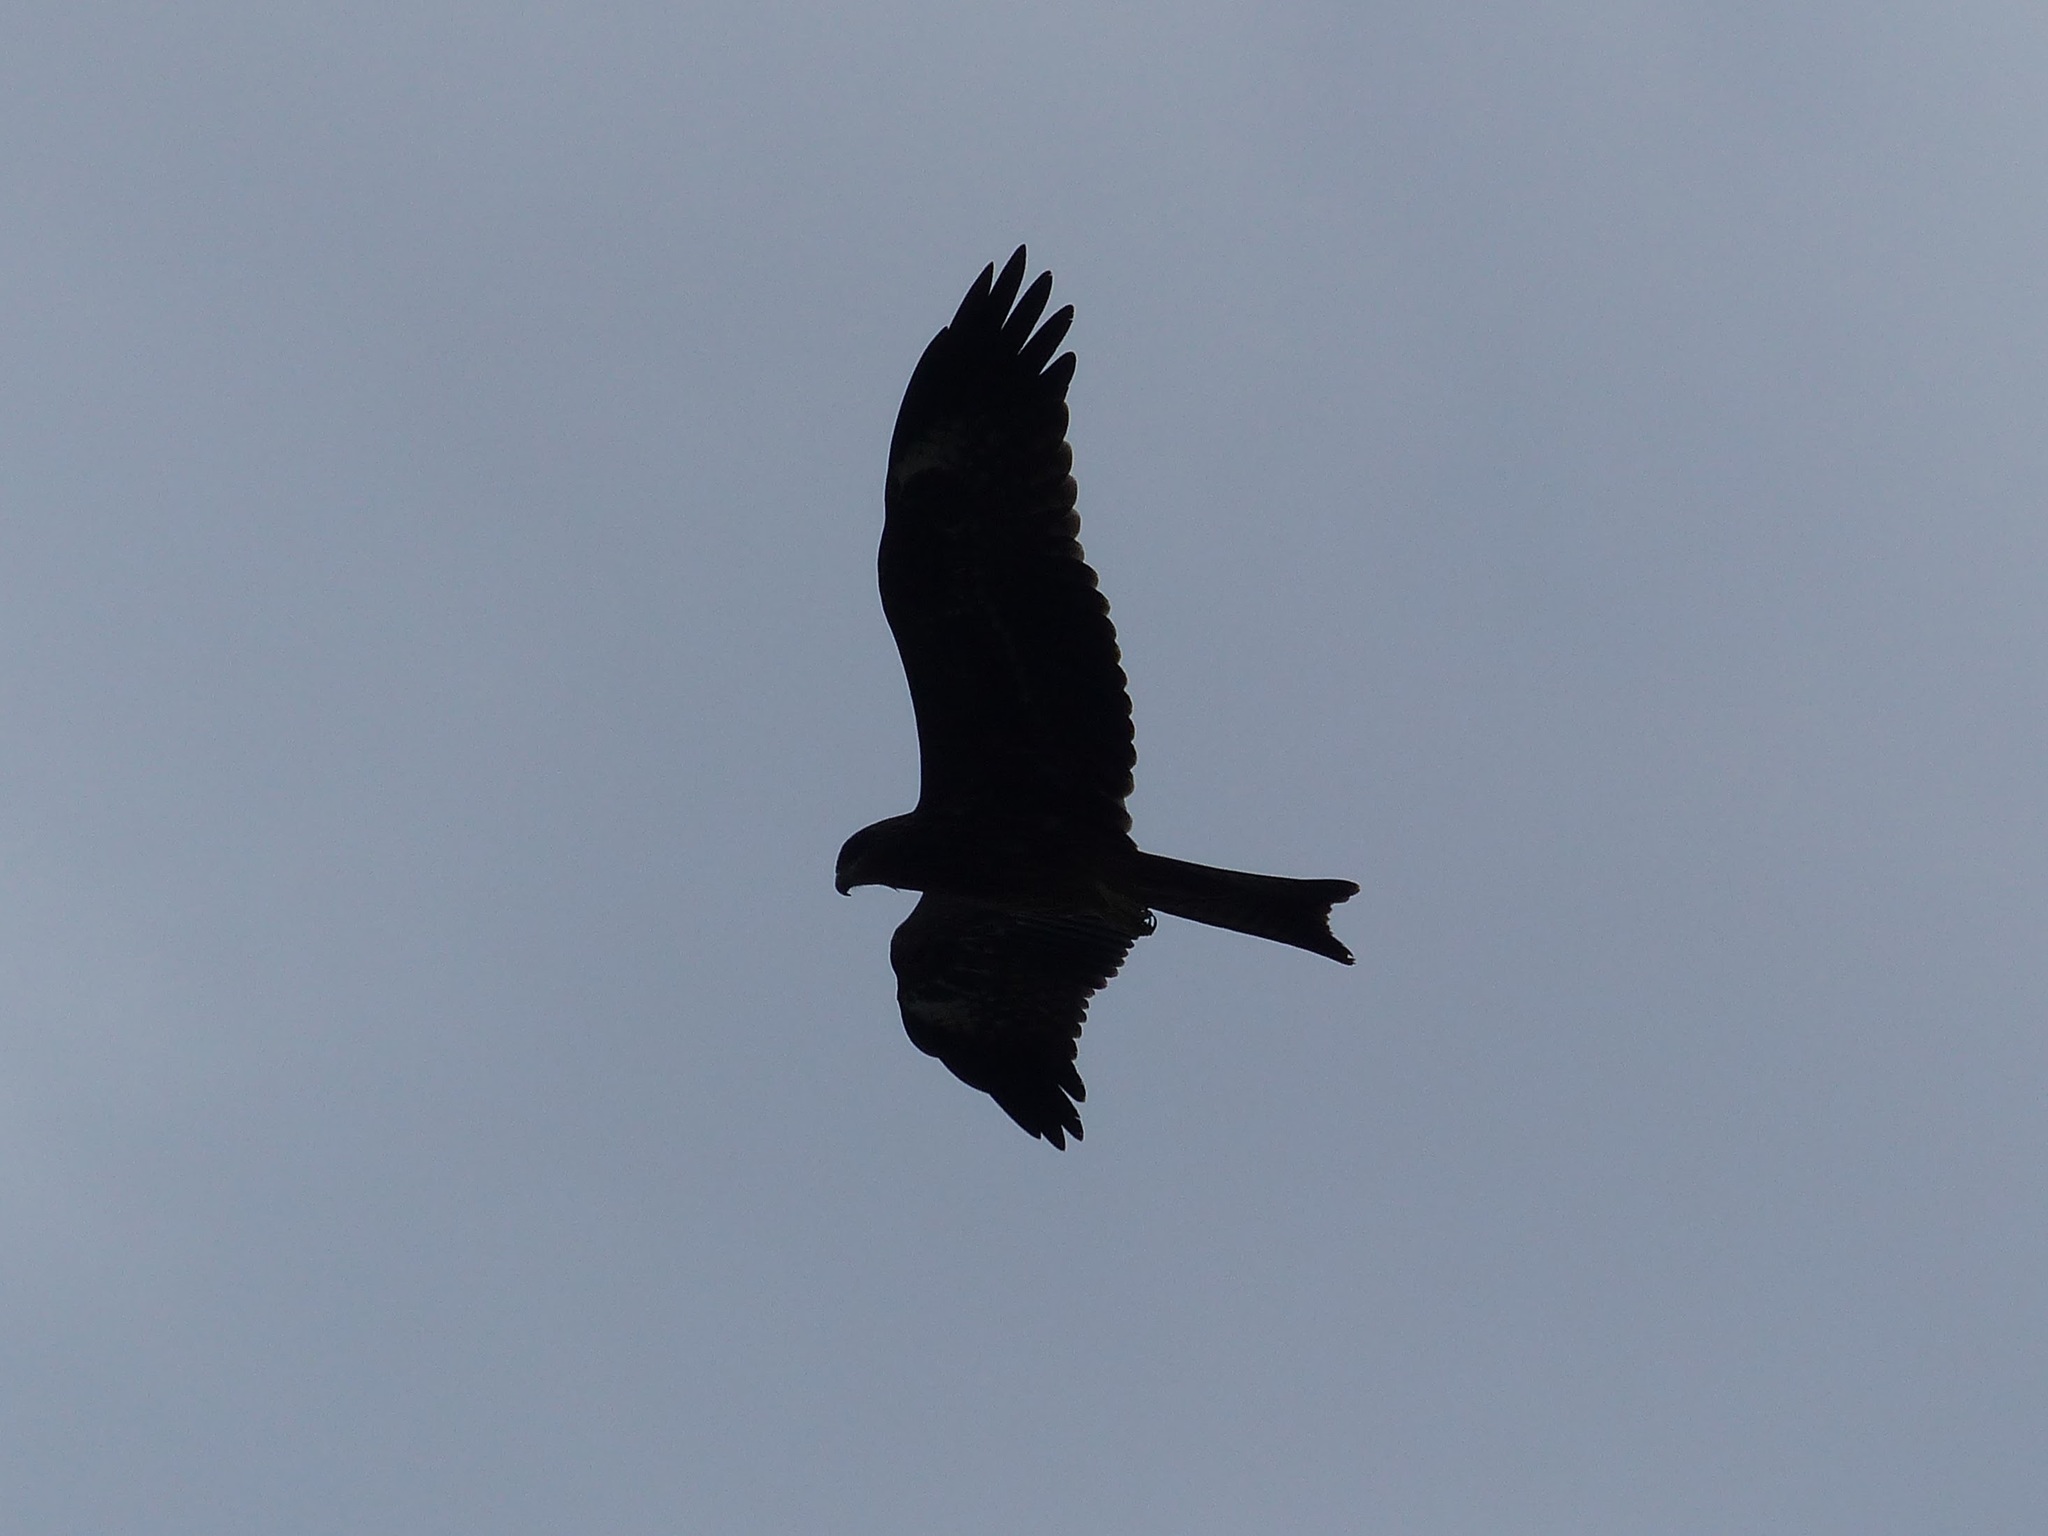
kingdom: Animalia
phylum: Chordata
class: Aves
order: Accipitriformes
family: Accipitridae
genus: Milvus
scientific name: Milvus migrans
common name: Black kite
